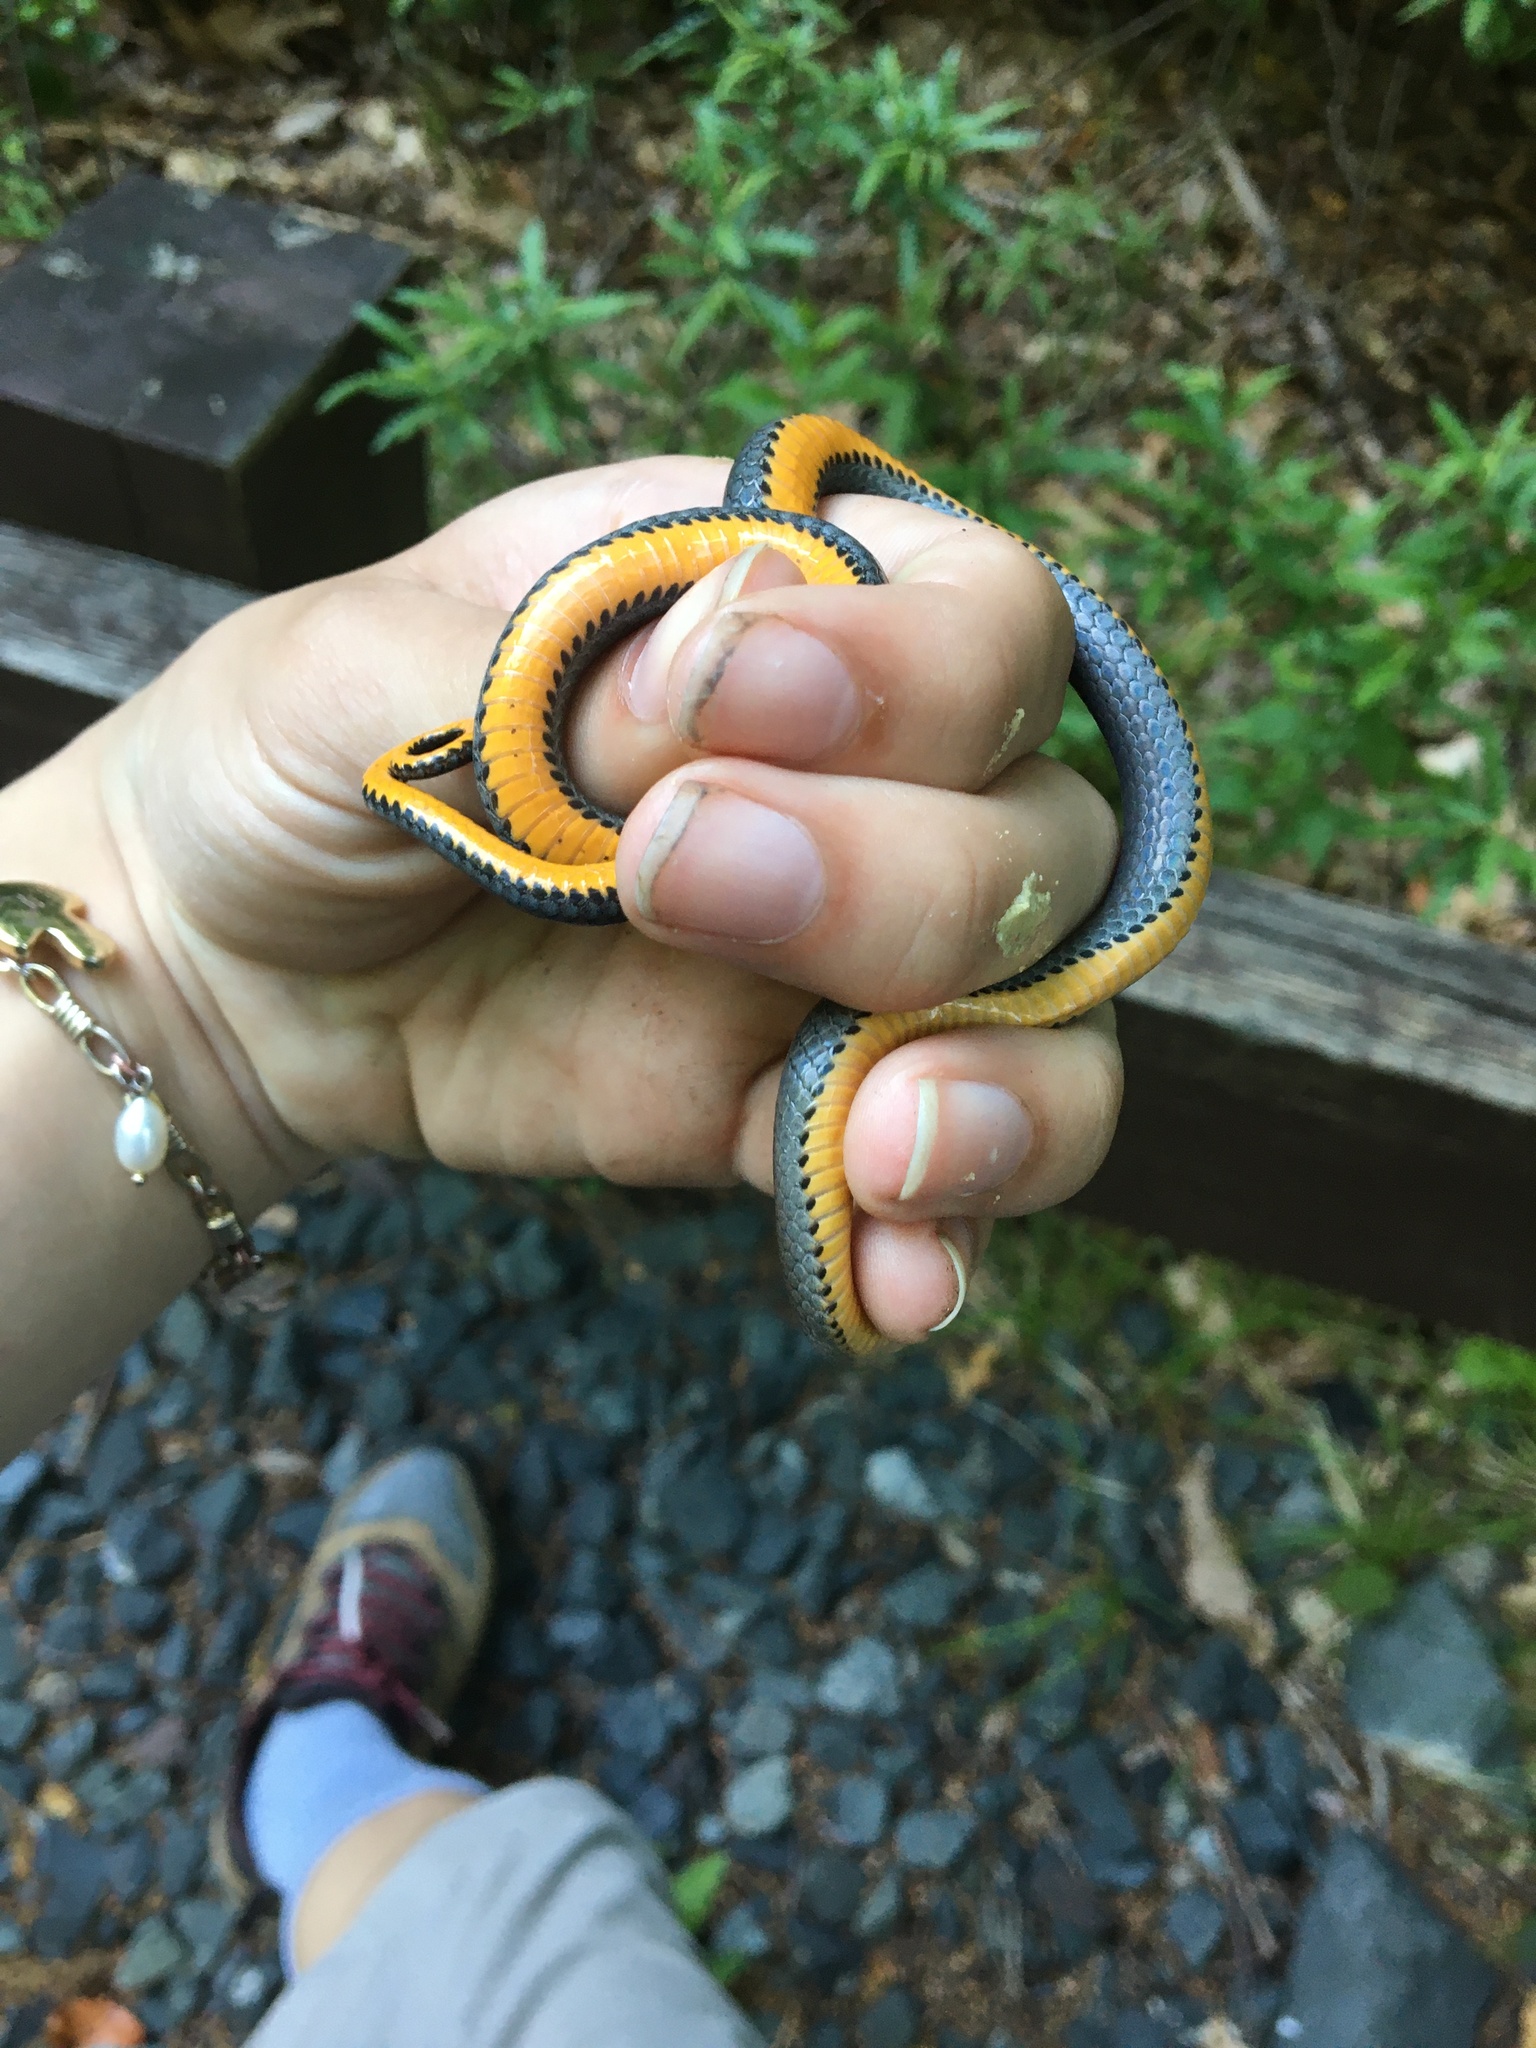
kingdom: Animalia
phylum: Chordata
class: Squamata
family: Colubridae
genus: Diadophis
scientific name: Diadophis punctatus
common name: Ringneck snake
